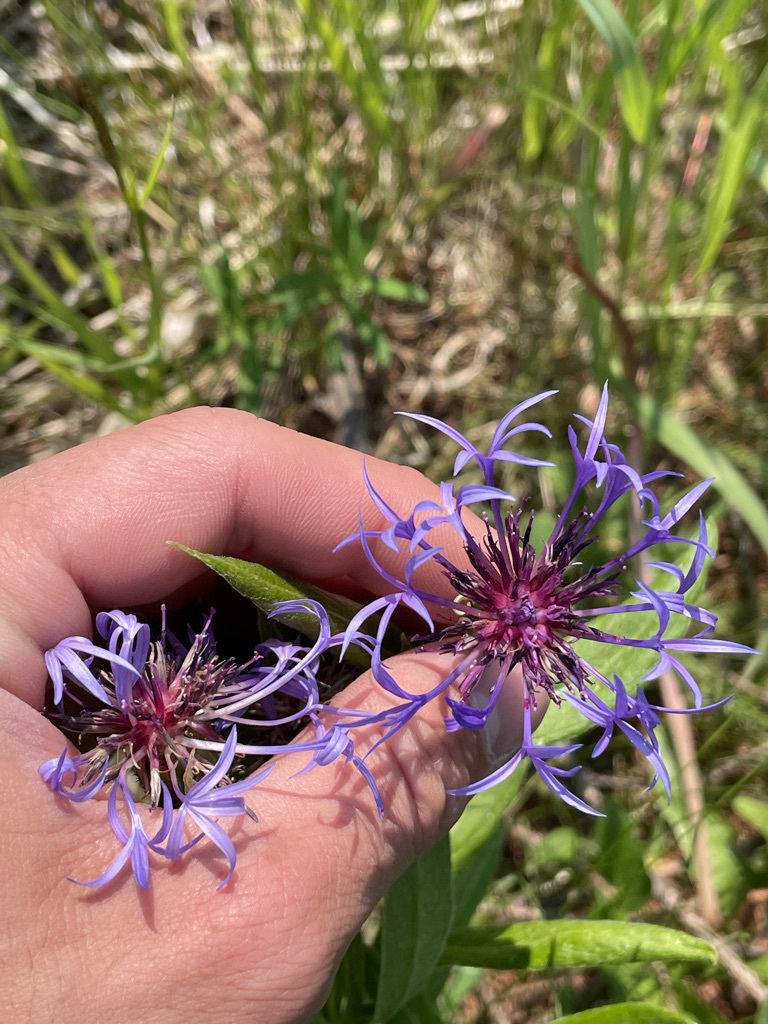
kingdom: Plantae
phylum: Tracheophyta
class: Magnoliopsida
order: Asterales
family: Asteraceae
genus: Centaurea
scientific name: Centaurea montana
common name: Perennial cornflower
